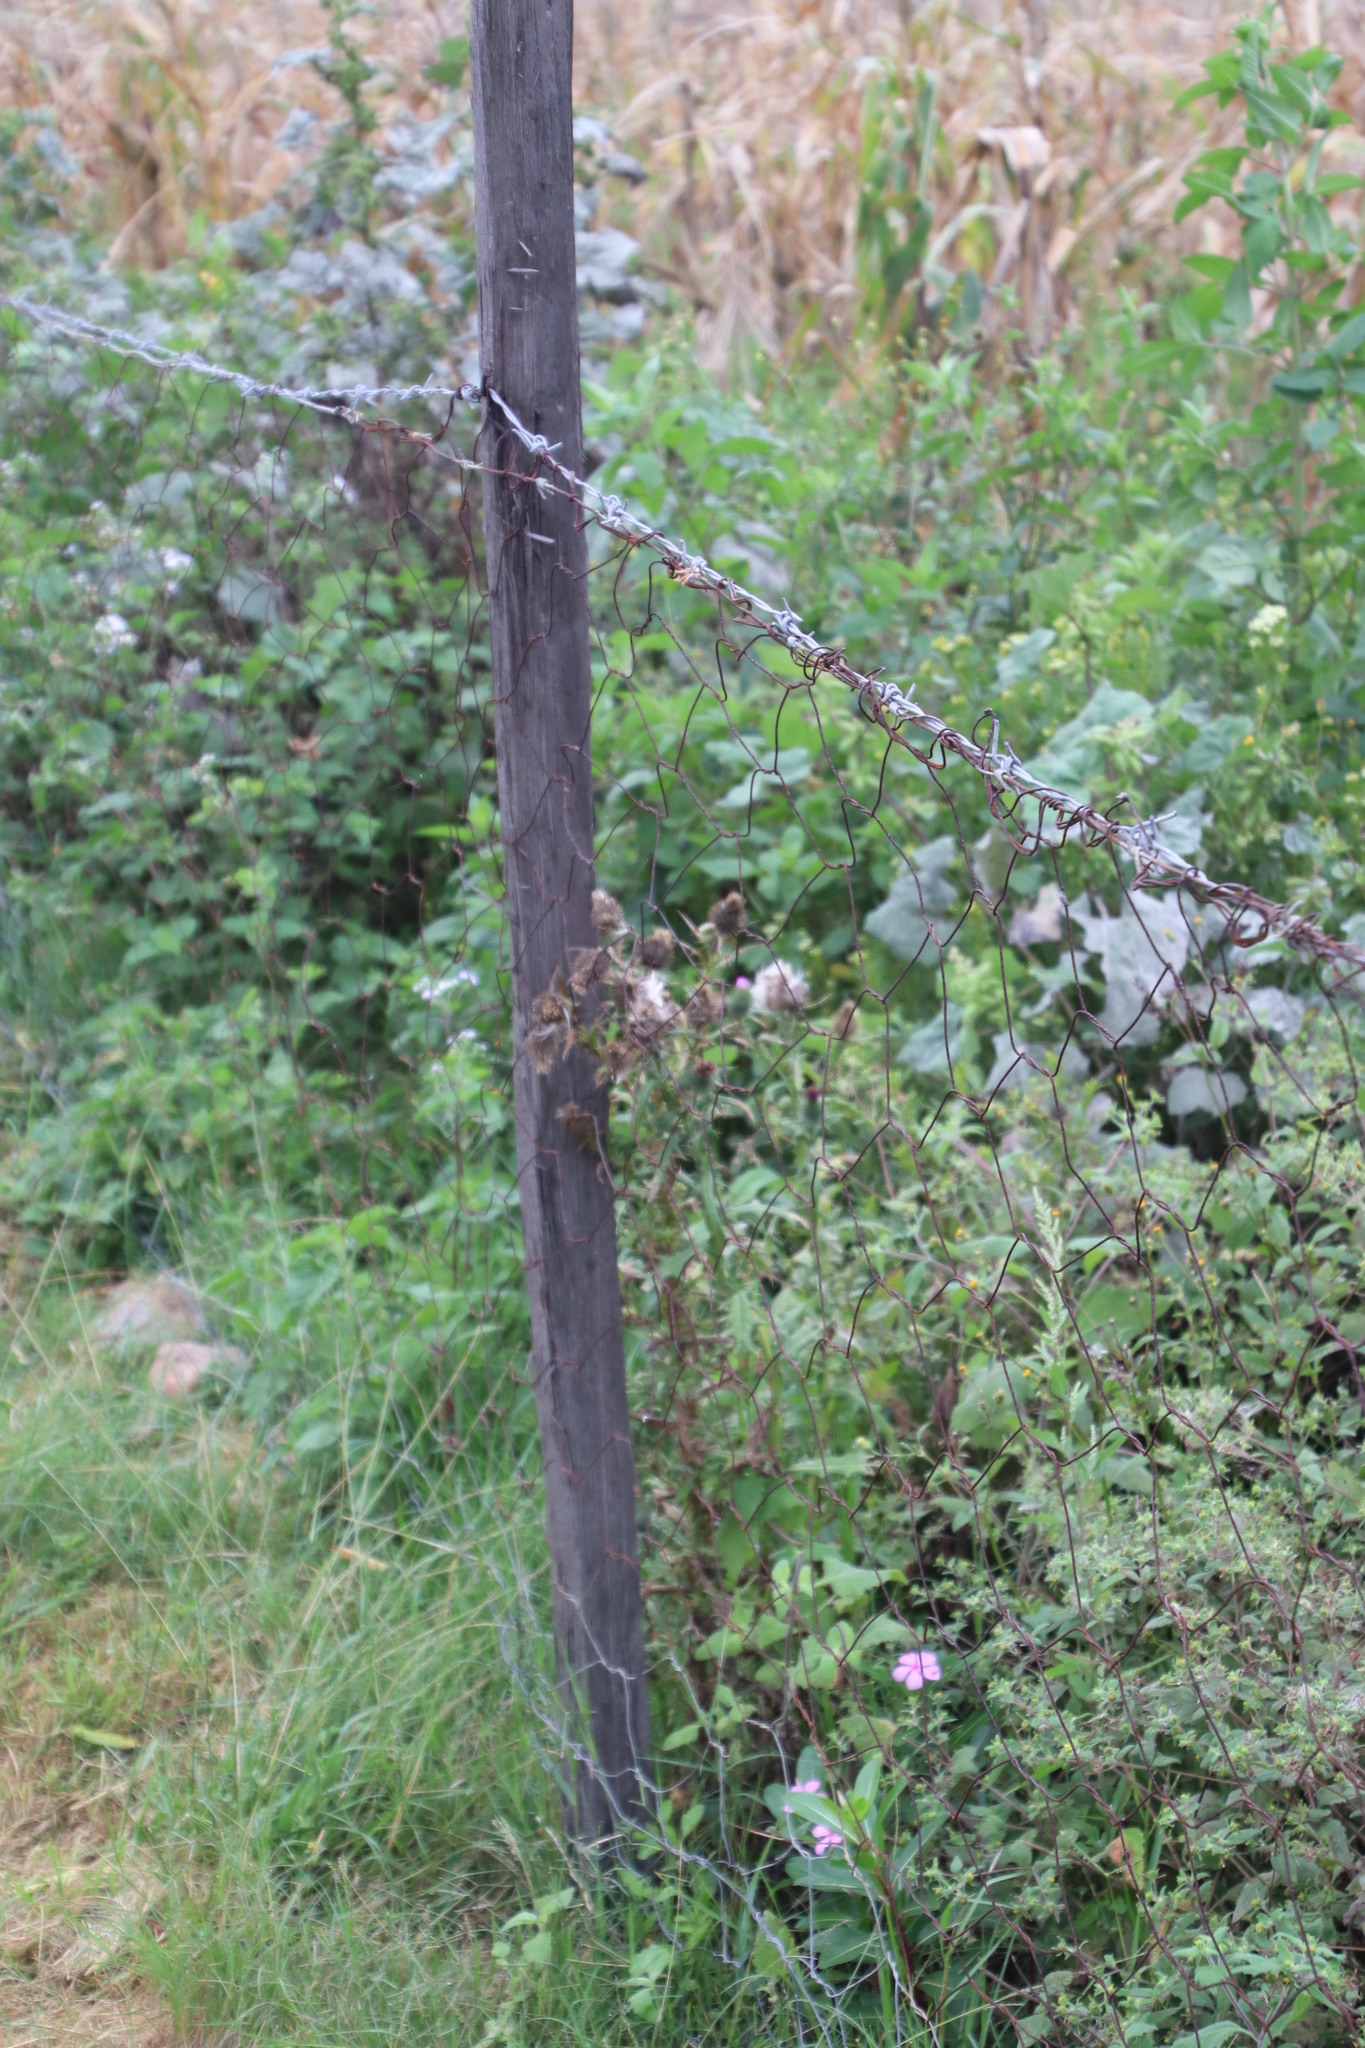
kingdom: Plantae
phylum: Tracheophyta
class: Magnoliopsida
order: Asterales
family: Asteraceae
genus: Cirsium
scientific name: Cirsium vulgare
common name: Bull thistle
